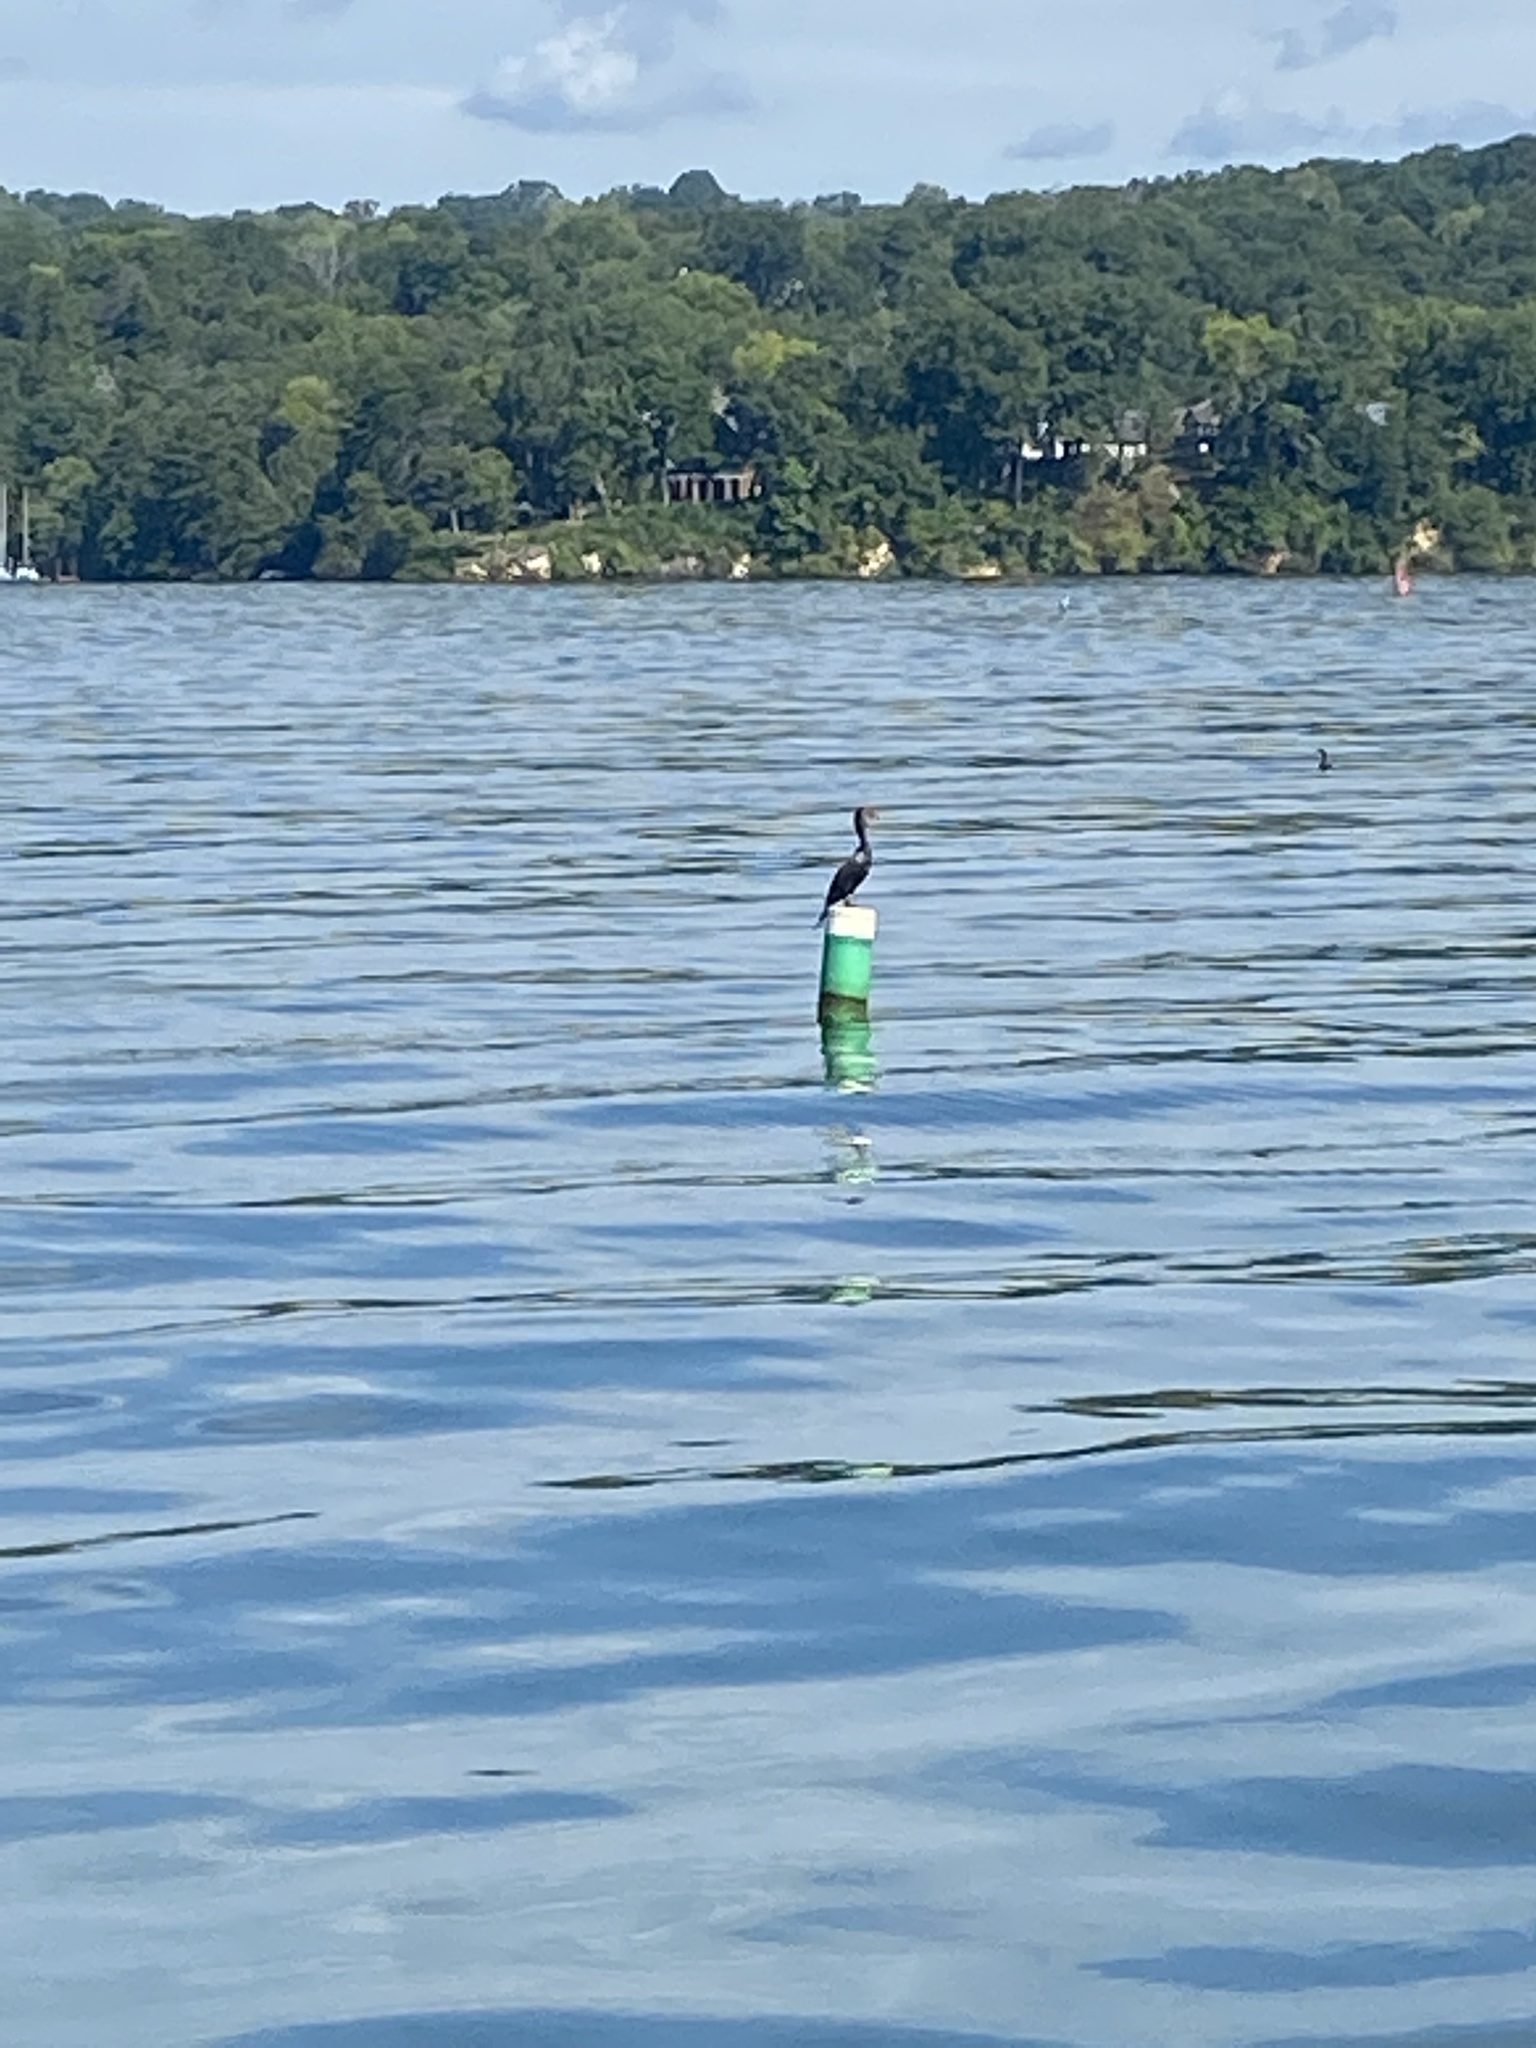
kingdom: Animalia
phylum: Chordata
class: Aves
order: Suliformes
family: Phalacrocoracidae
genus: Phalacrocorax
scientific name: Phalacrocorax auritus
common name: Double-crested cormorant
